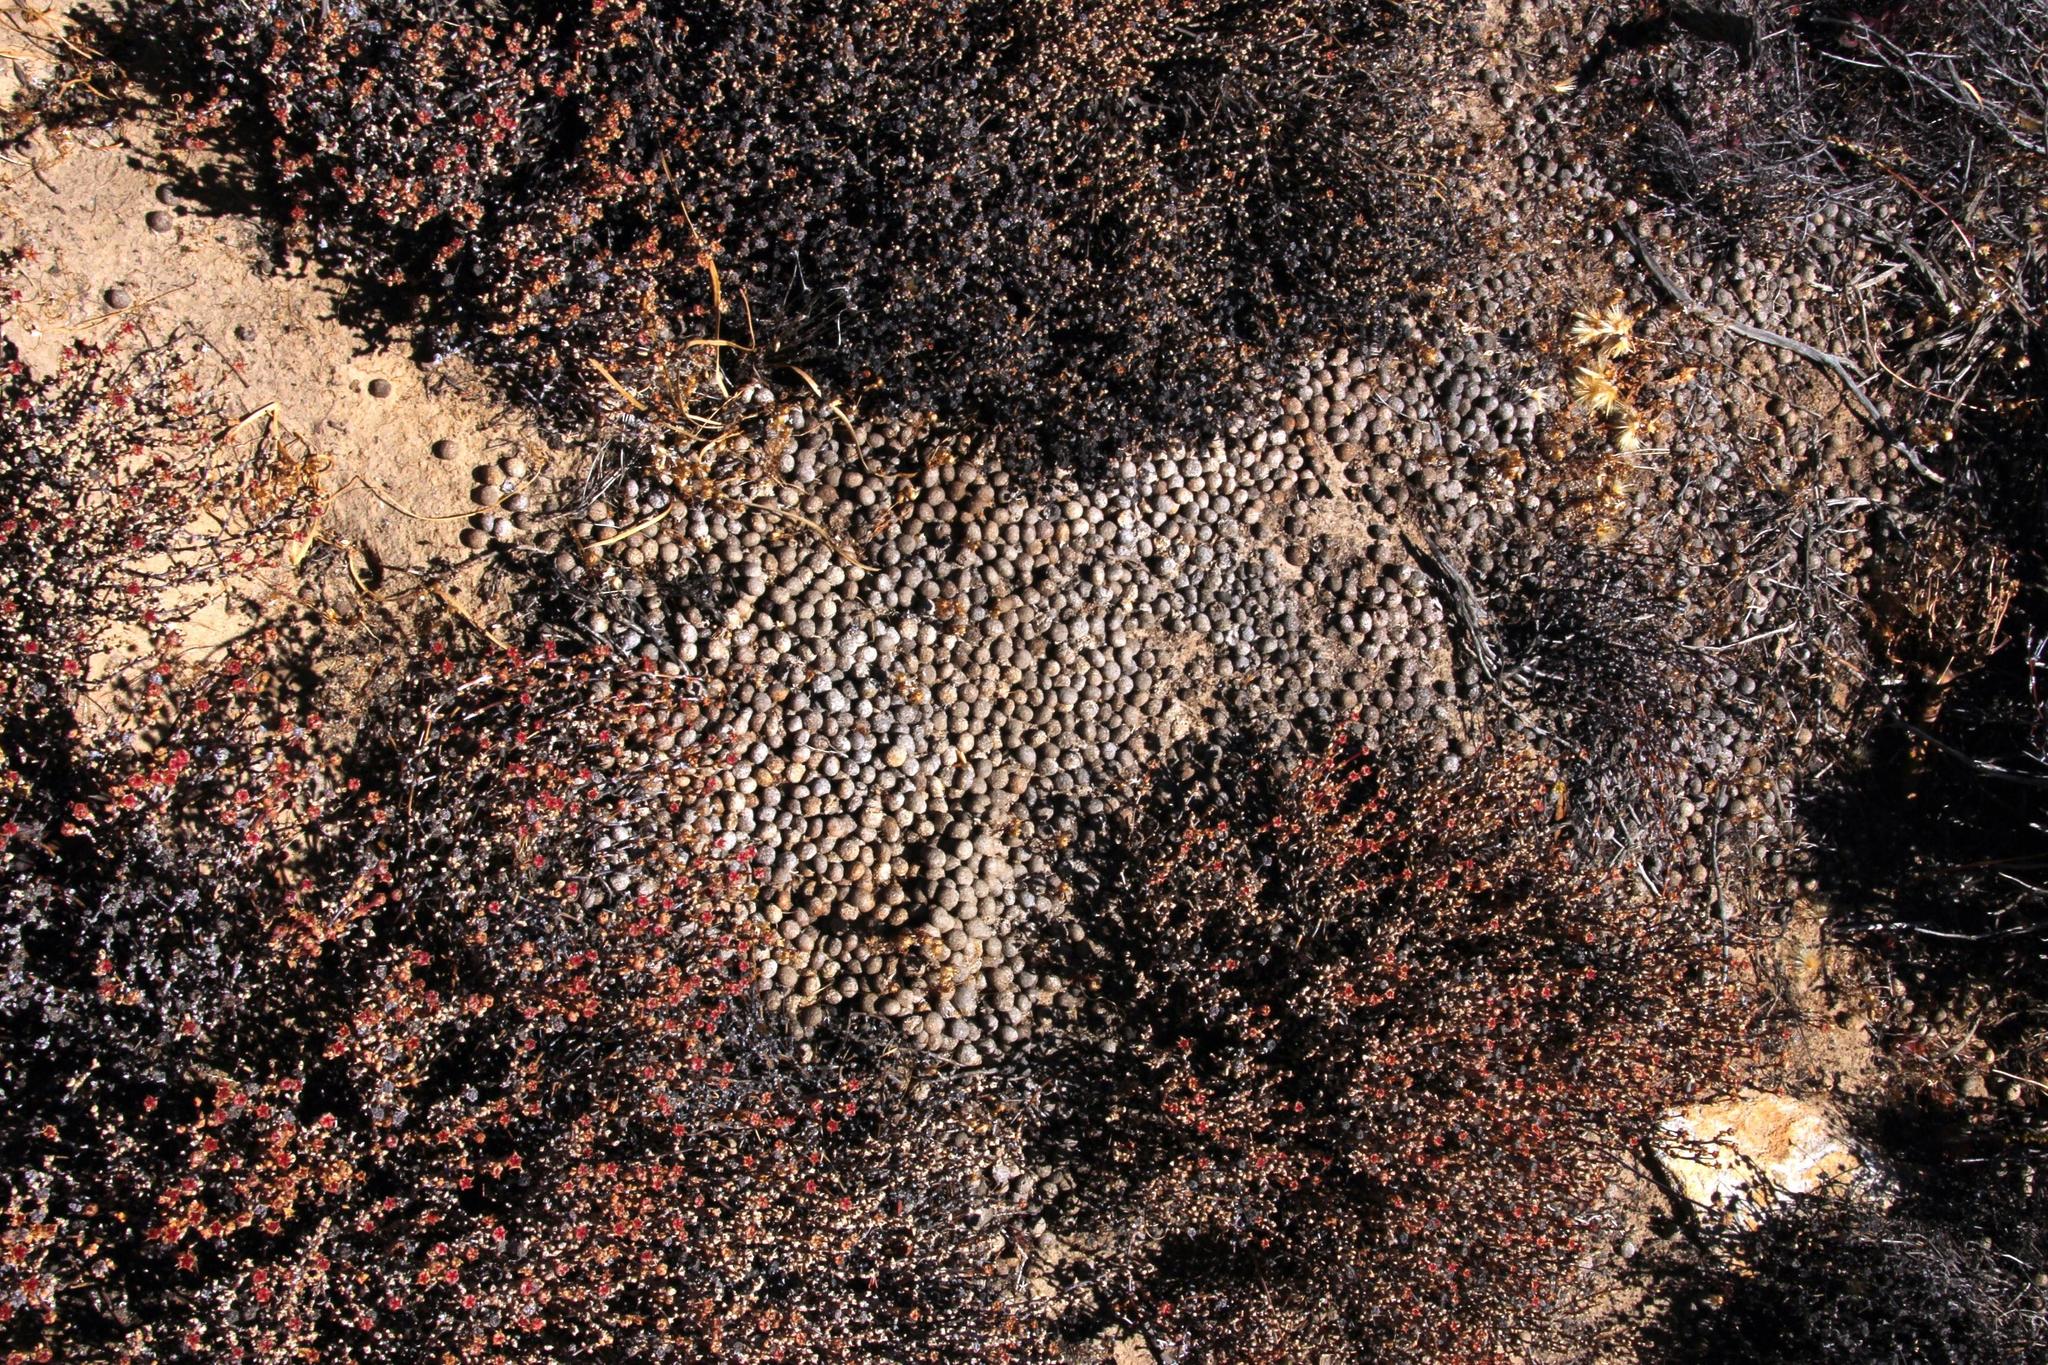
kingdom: Animalia
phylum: Chordata
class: Mammalia
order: Lagomorpha
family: Leporidae
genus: Pronolagus
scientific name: Pronolagus saundersiae
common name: Hewitt's red rock hare
